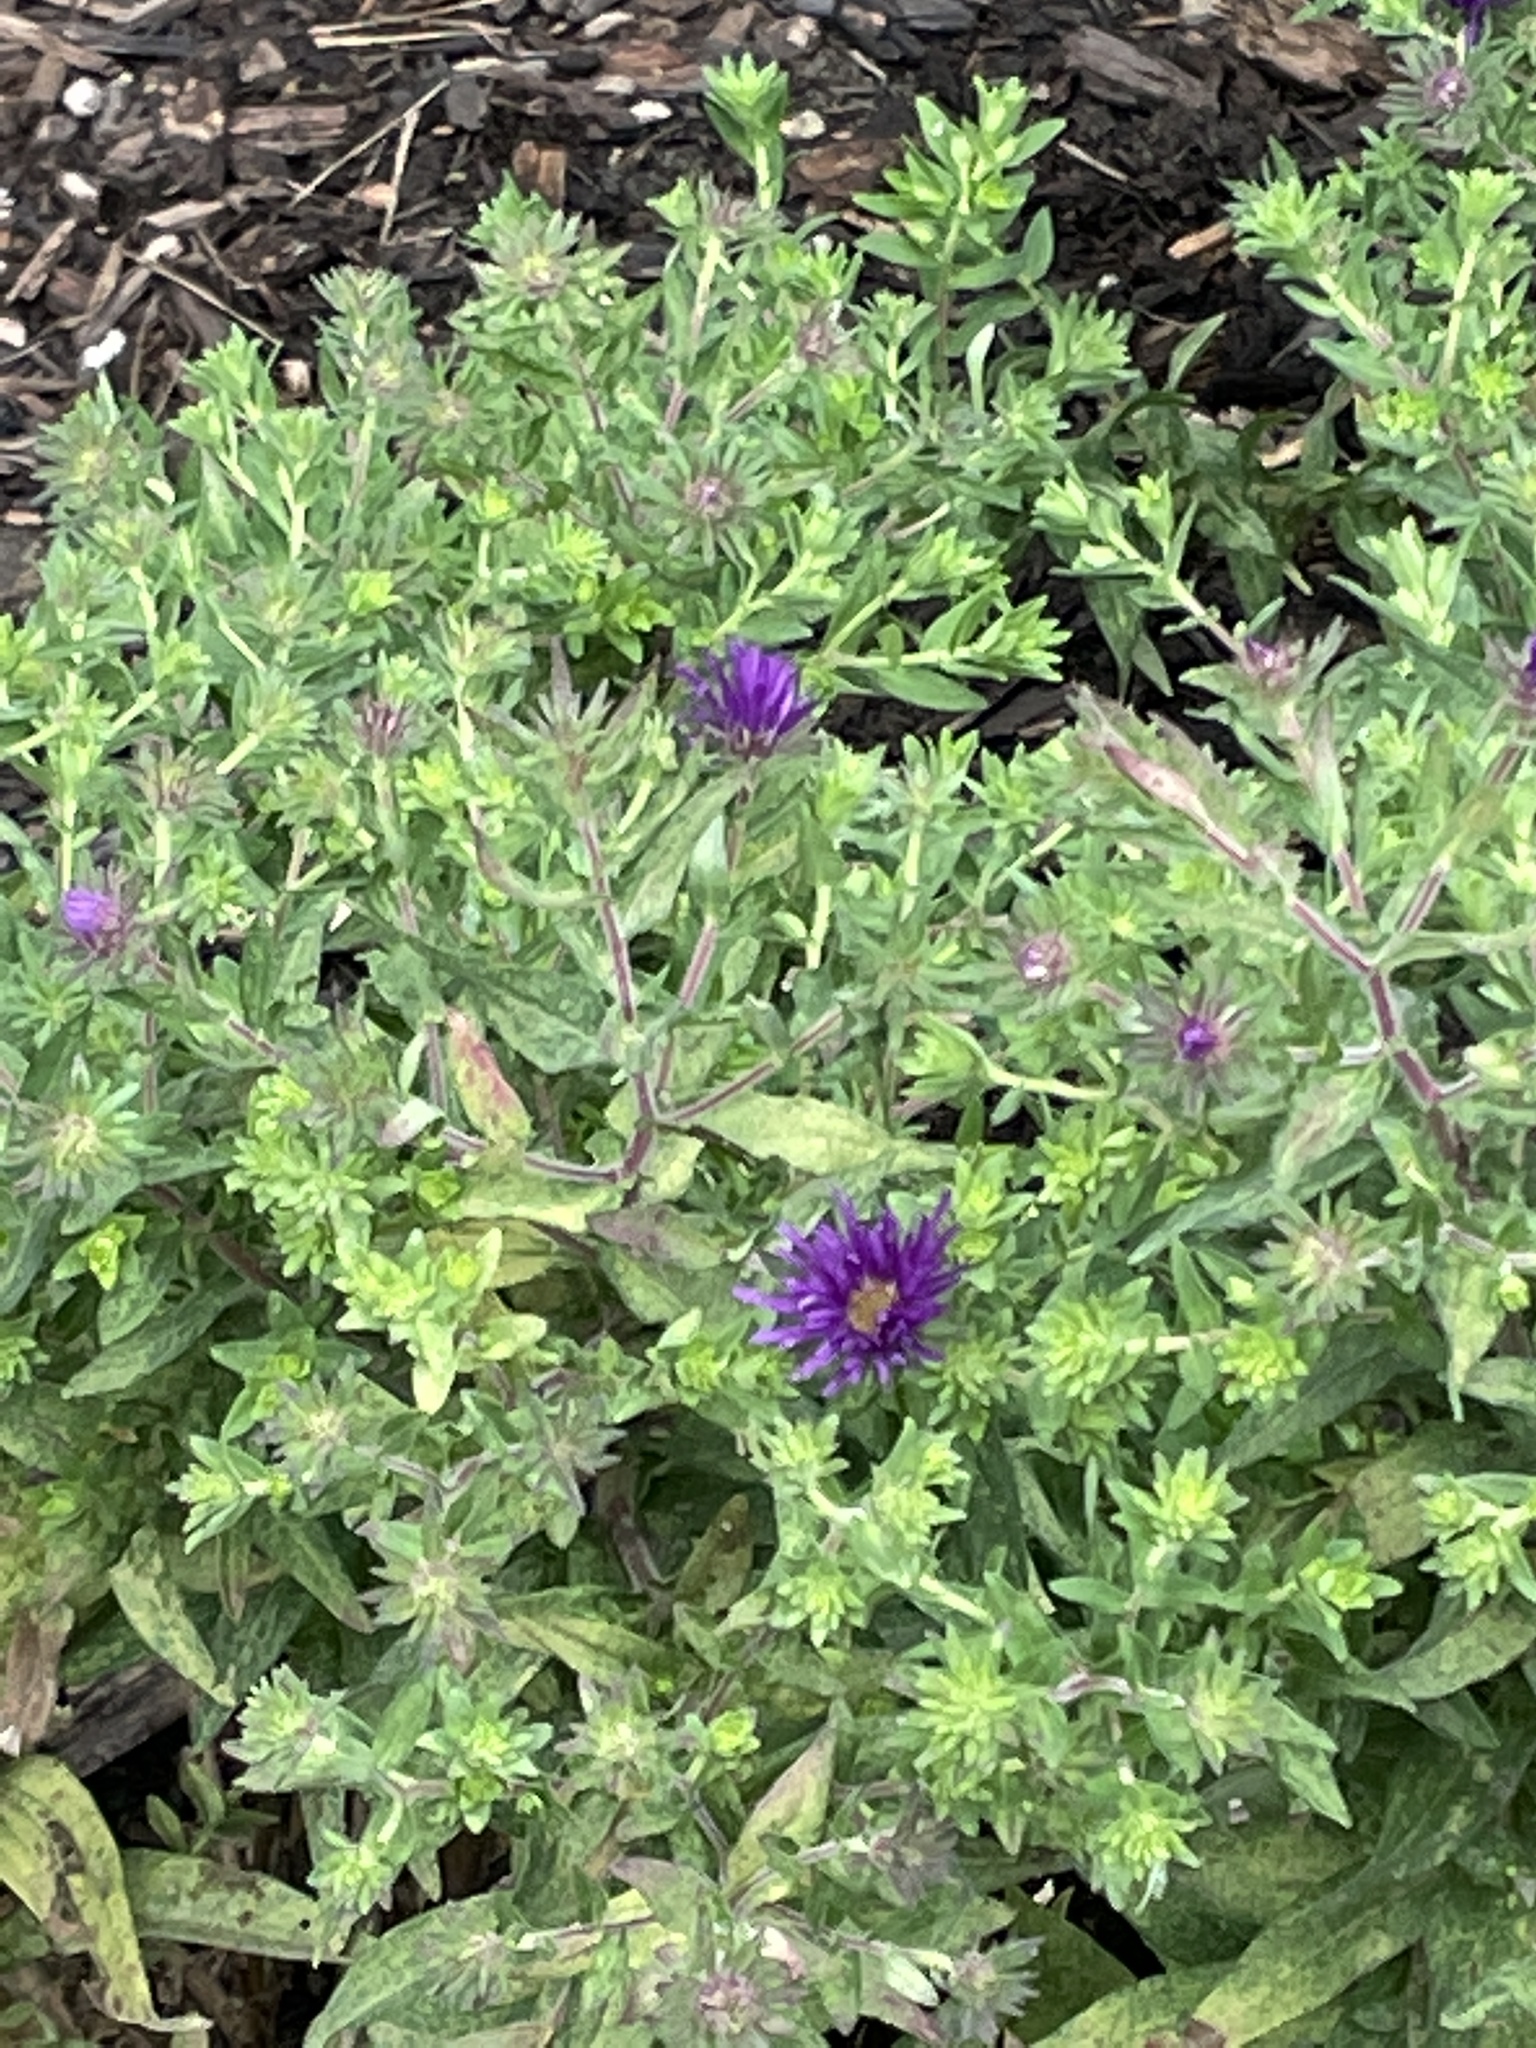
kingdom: Plantae
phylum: Tracheophyta
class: Magnoliopsida
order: Asterales
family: Asteraceae
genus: Symphyotrichum
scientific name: Symphyotrichum novae-angliae
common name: Michaelmas daisy
